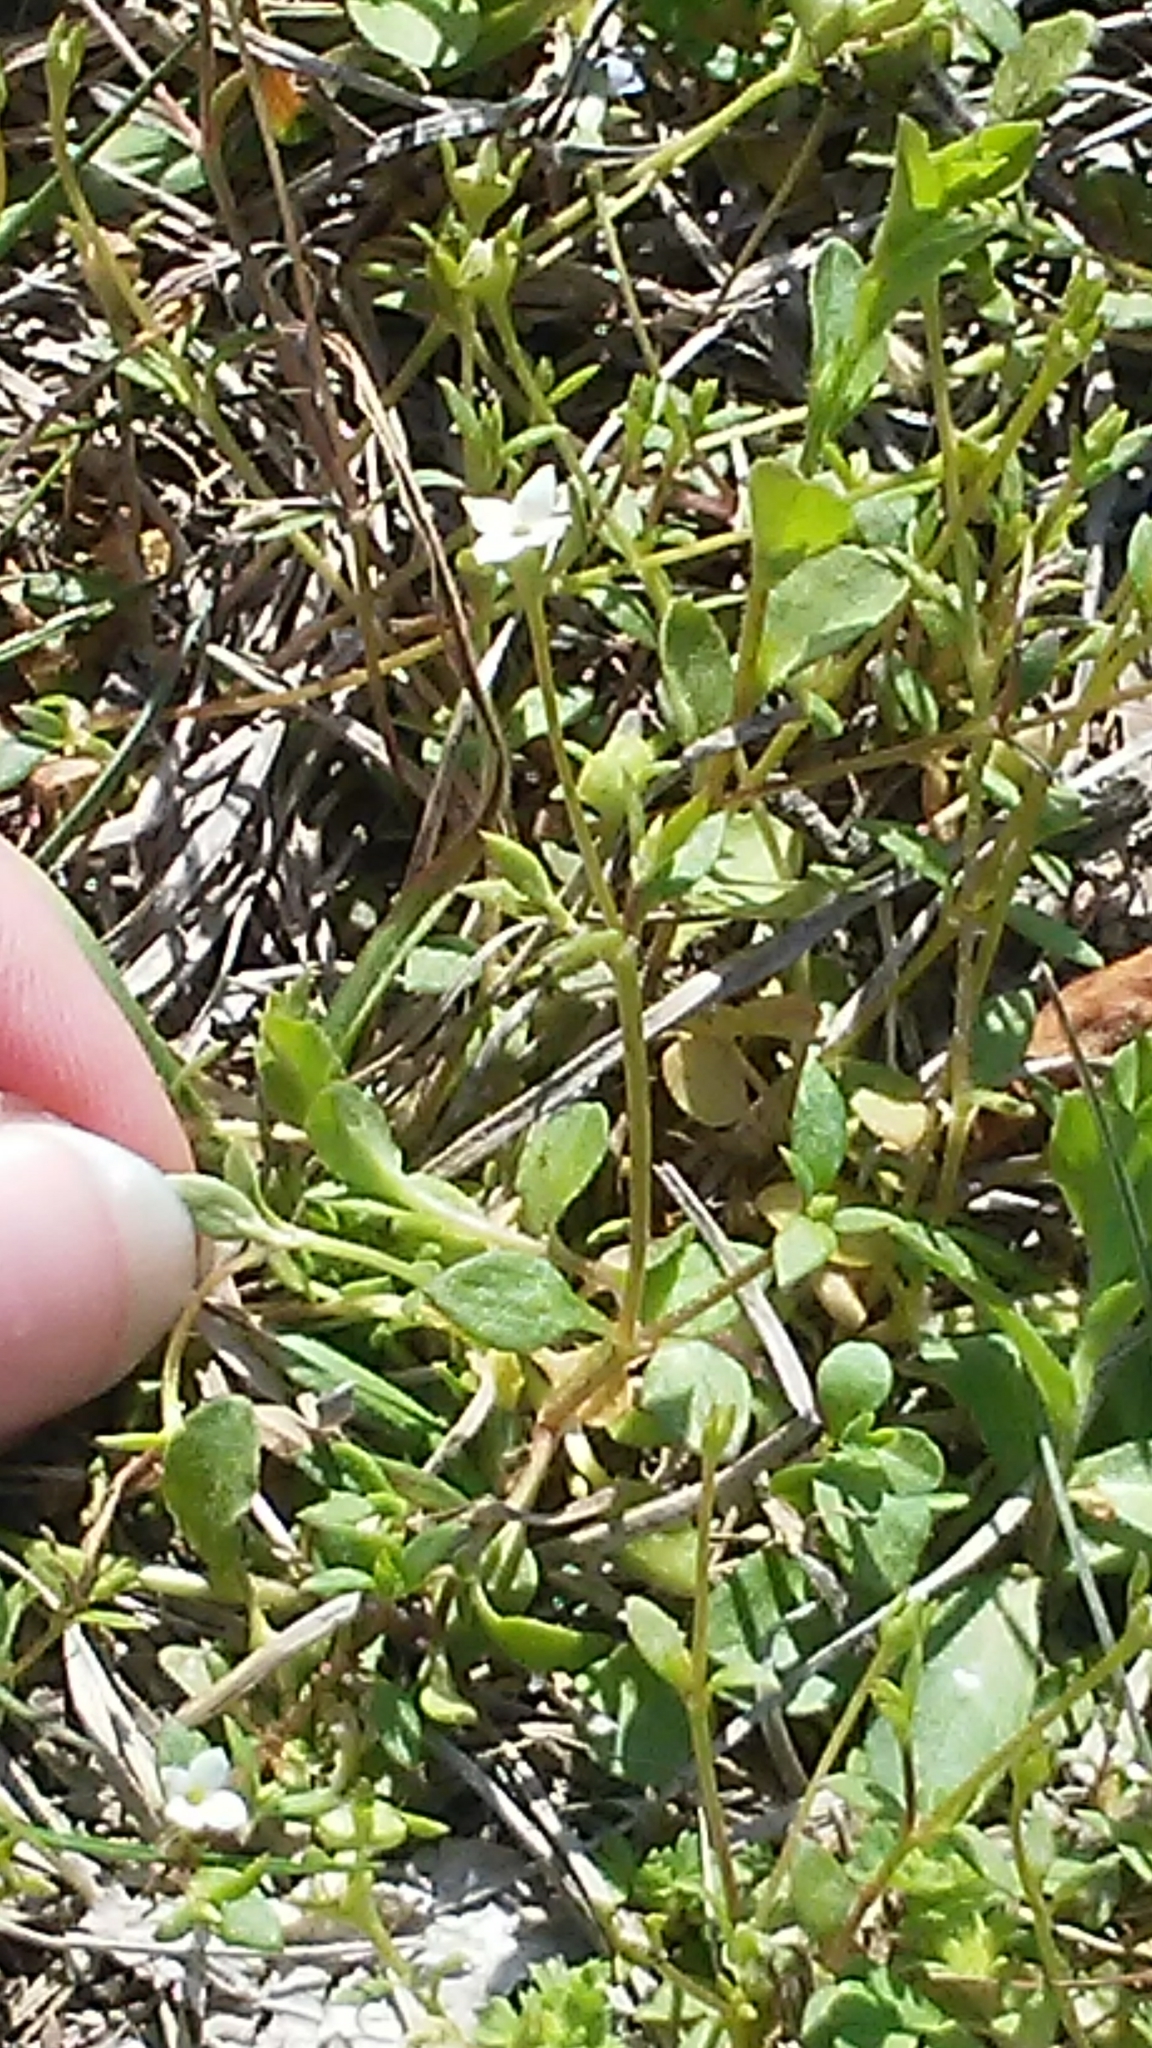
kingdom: Plantae
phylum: Tracheophyta
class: Magnoliopsida
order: Gentianales
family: Rubiaceae
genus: Houstonia
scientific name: Houstonia micrantha
